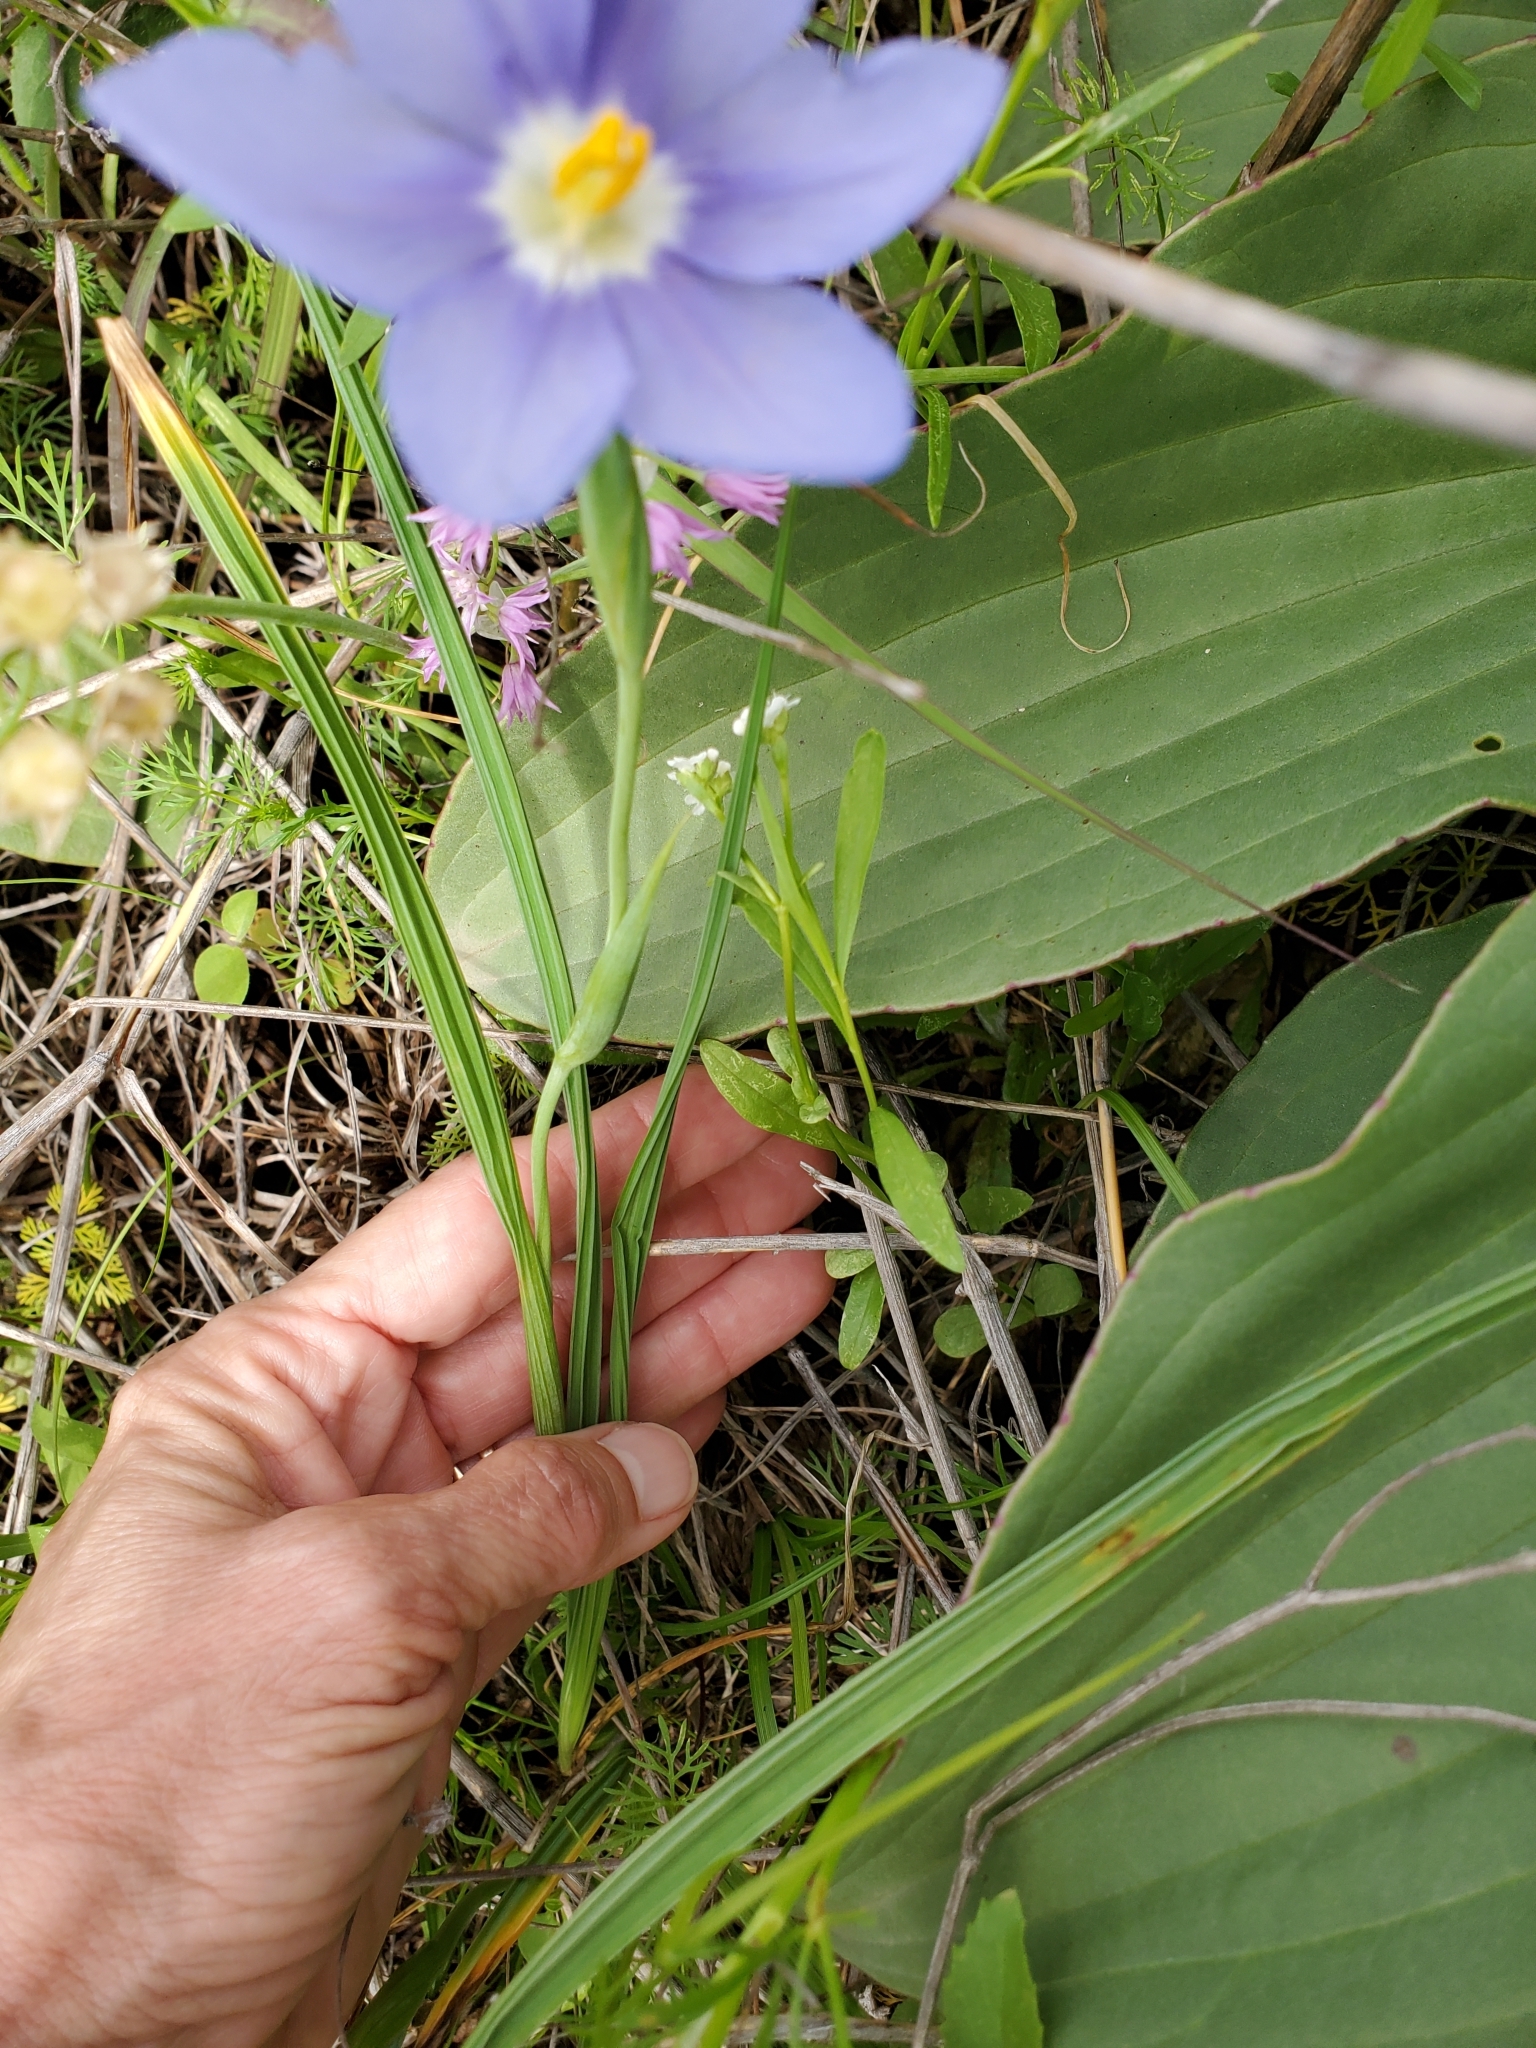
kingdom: Plantae
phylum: Tracheophyta
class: Liliopsida
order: Asparagales
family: Iridaceae
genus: Nemastylis
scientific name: Nemastylis geminiflora
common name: Prairie celestial
